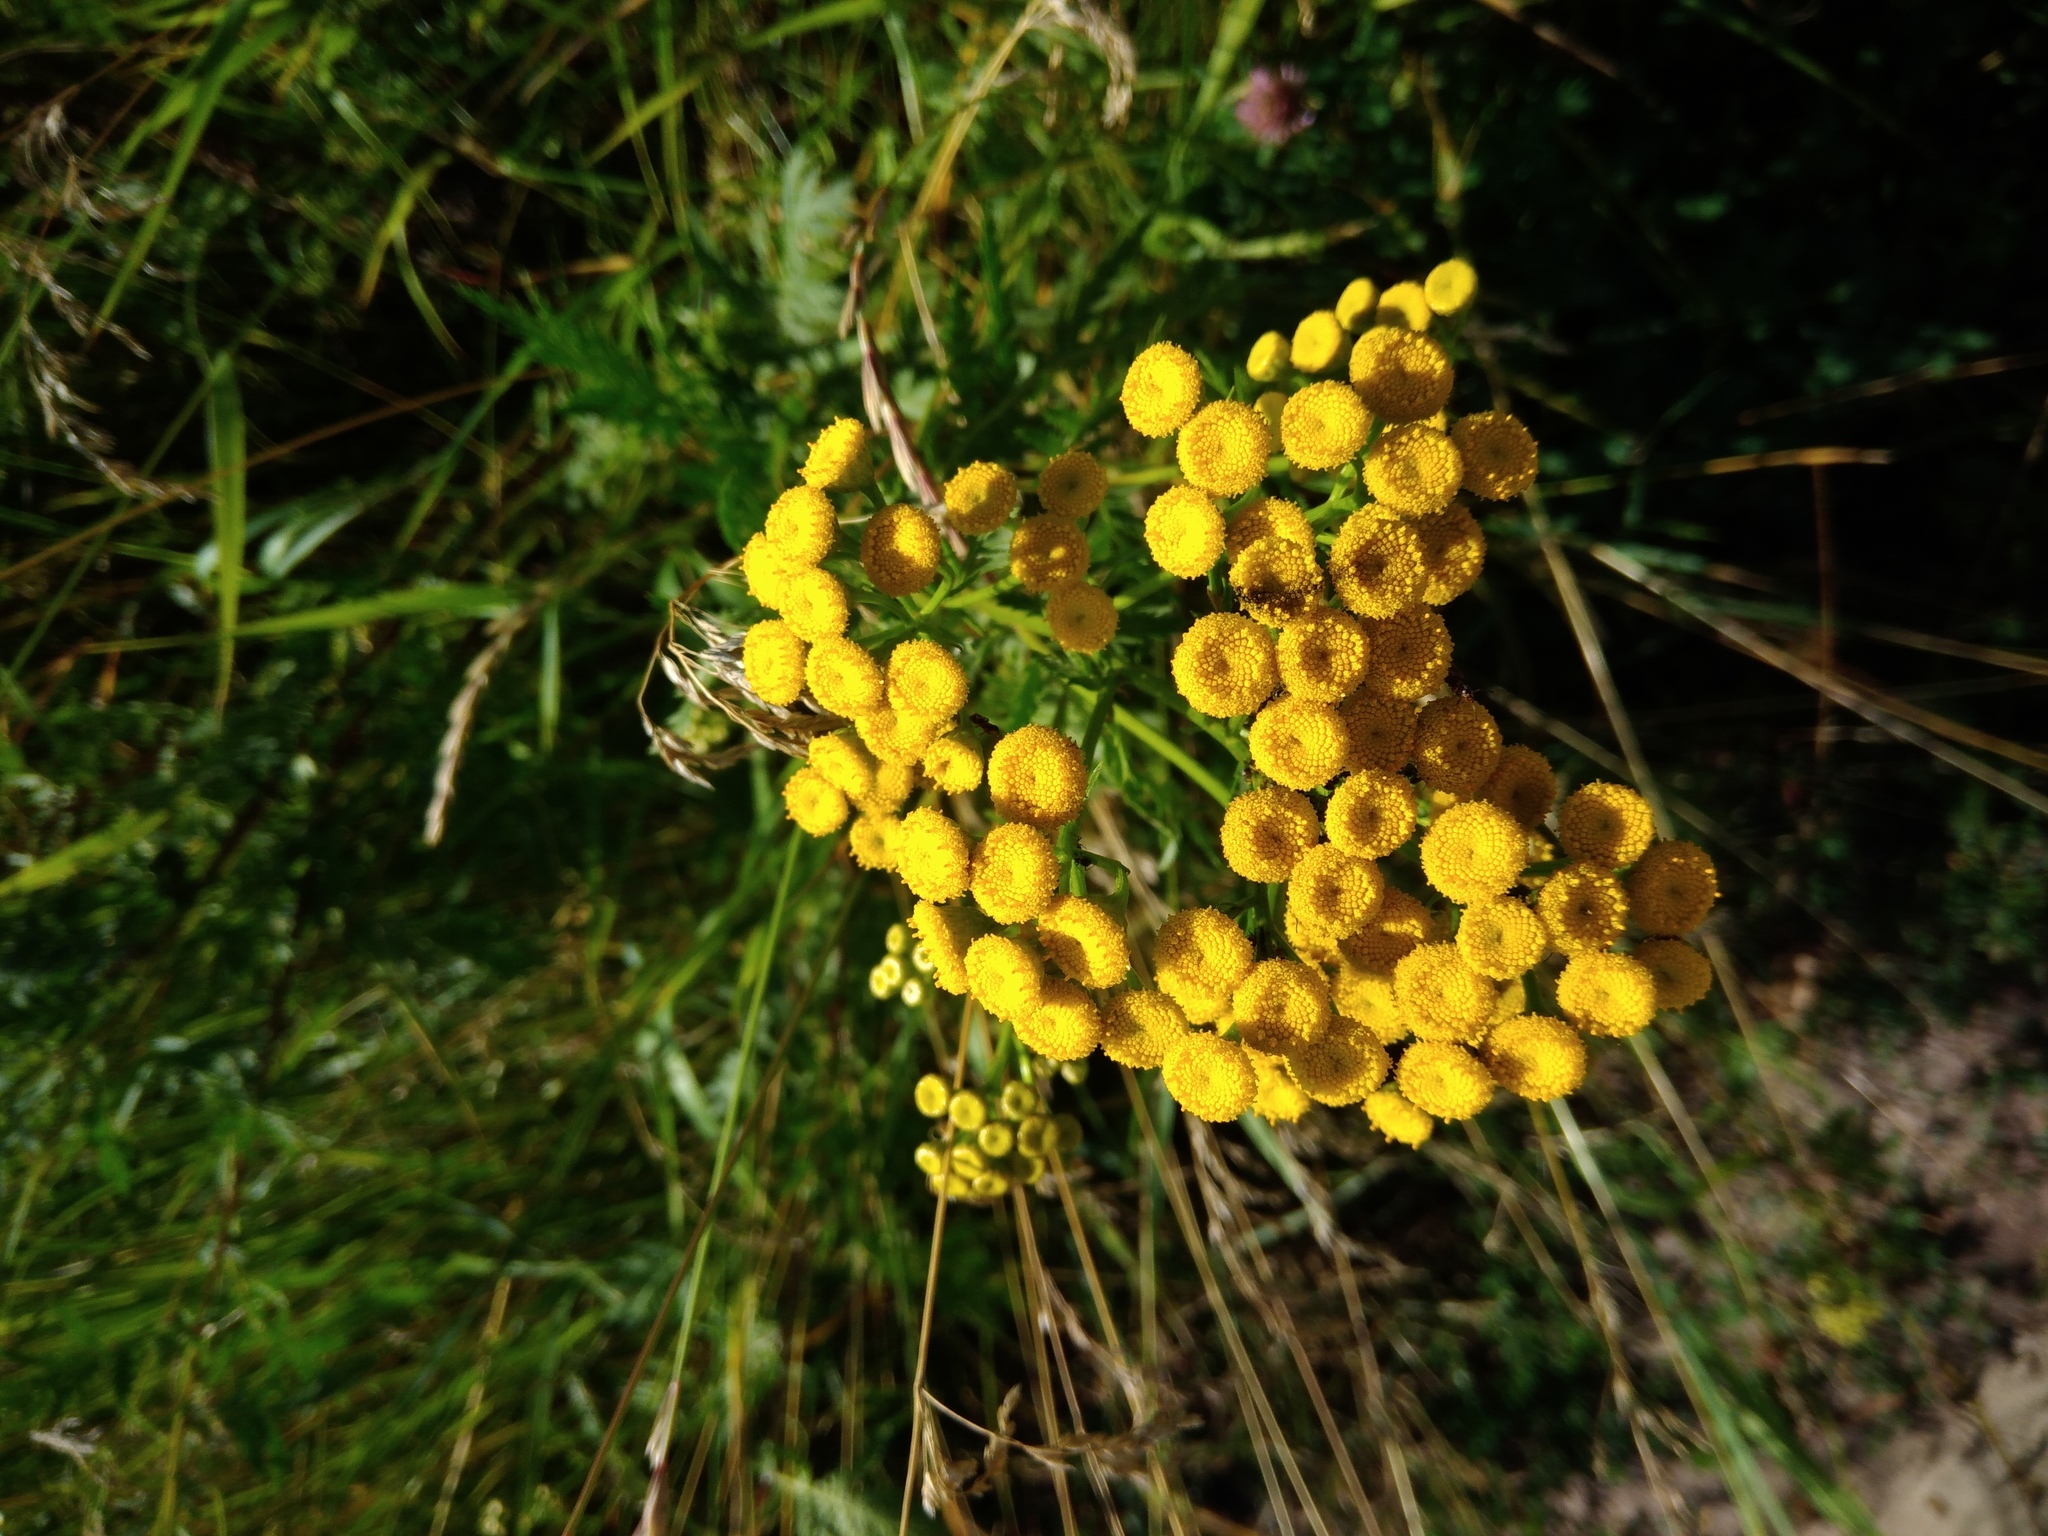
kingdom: Plantae
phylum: Tracheophyta
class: Magnoliopsida
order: Asterales
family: Asteraceae
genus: Tanacetum
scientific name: Tanacetum vulgare
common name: Common tansy
